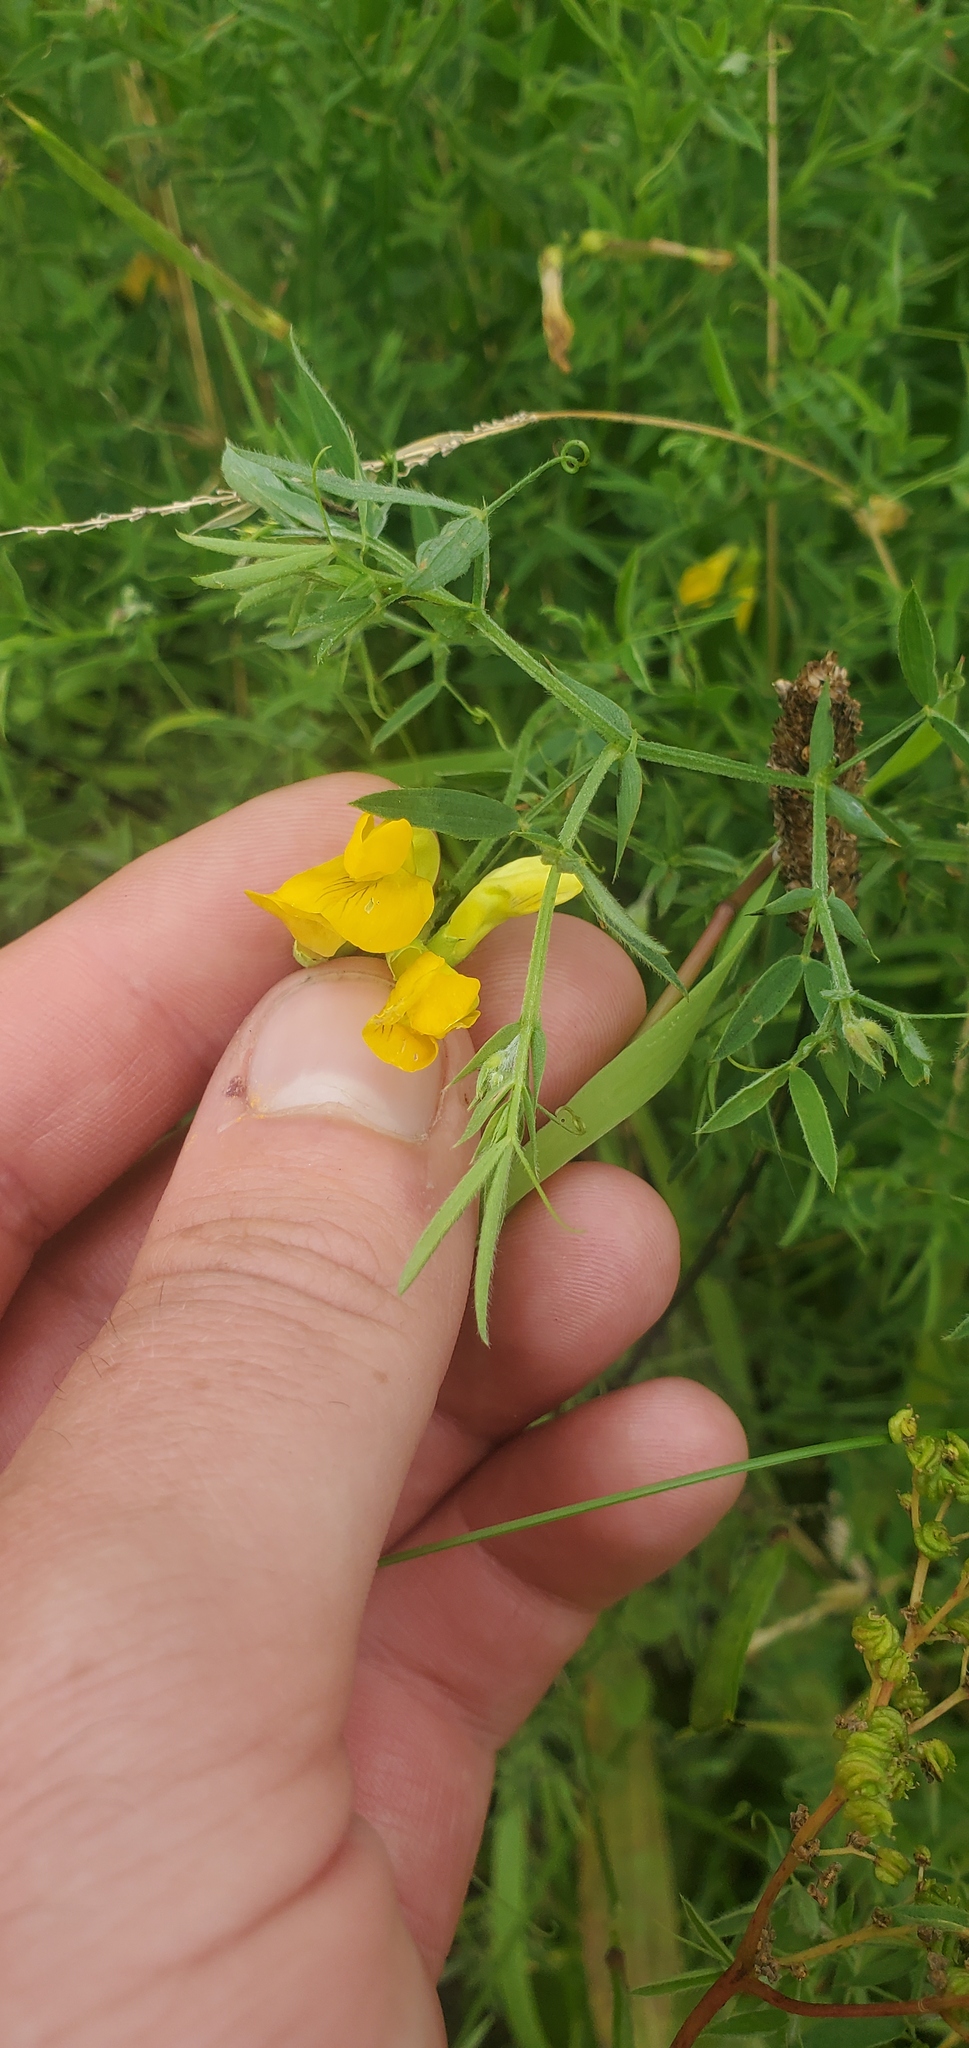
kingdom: Plantae
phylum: Tracheophyta
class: Magnoliopsida
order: Fabales
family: Fabaceae
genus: Lathyrus
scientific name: Lathyrus pratensis
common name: Meadow vetchling
